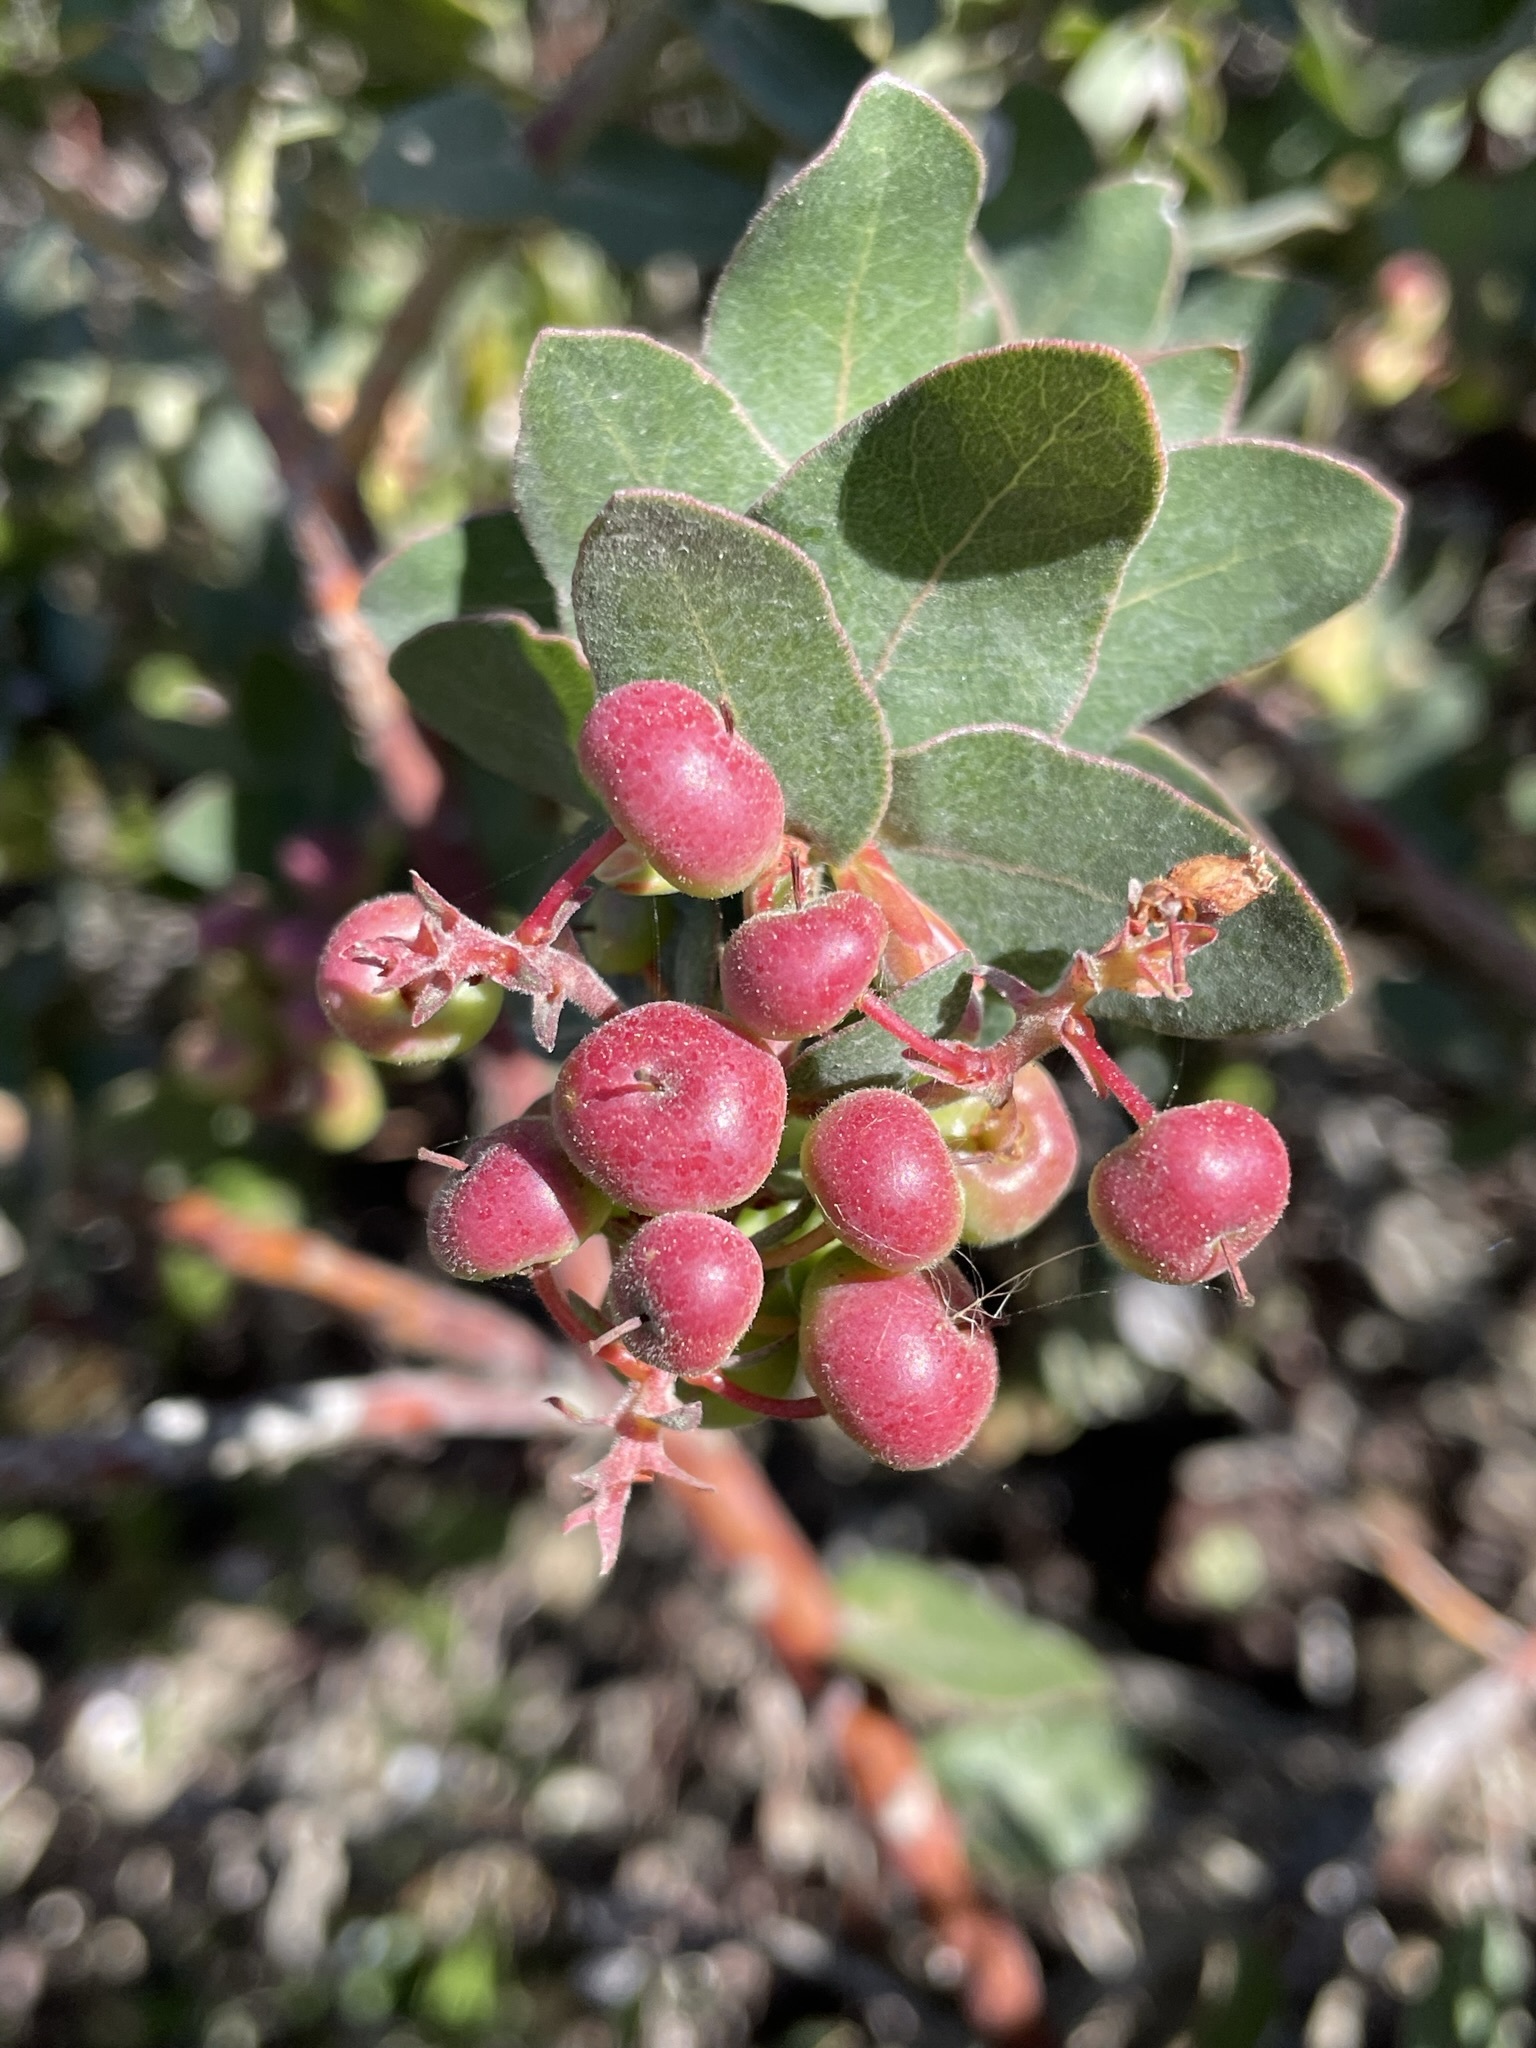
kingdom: Plantae
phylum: Tracheophyta
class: Magnoliopsida
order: Ericales
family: Ericaceae
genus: Arctostaphylos
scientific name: Arctostaphylos pajaroensis
